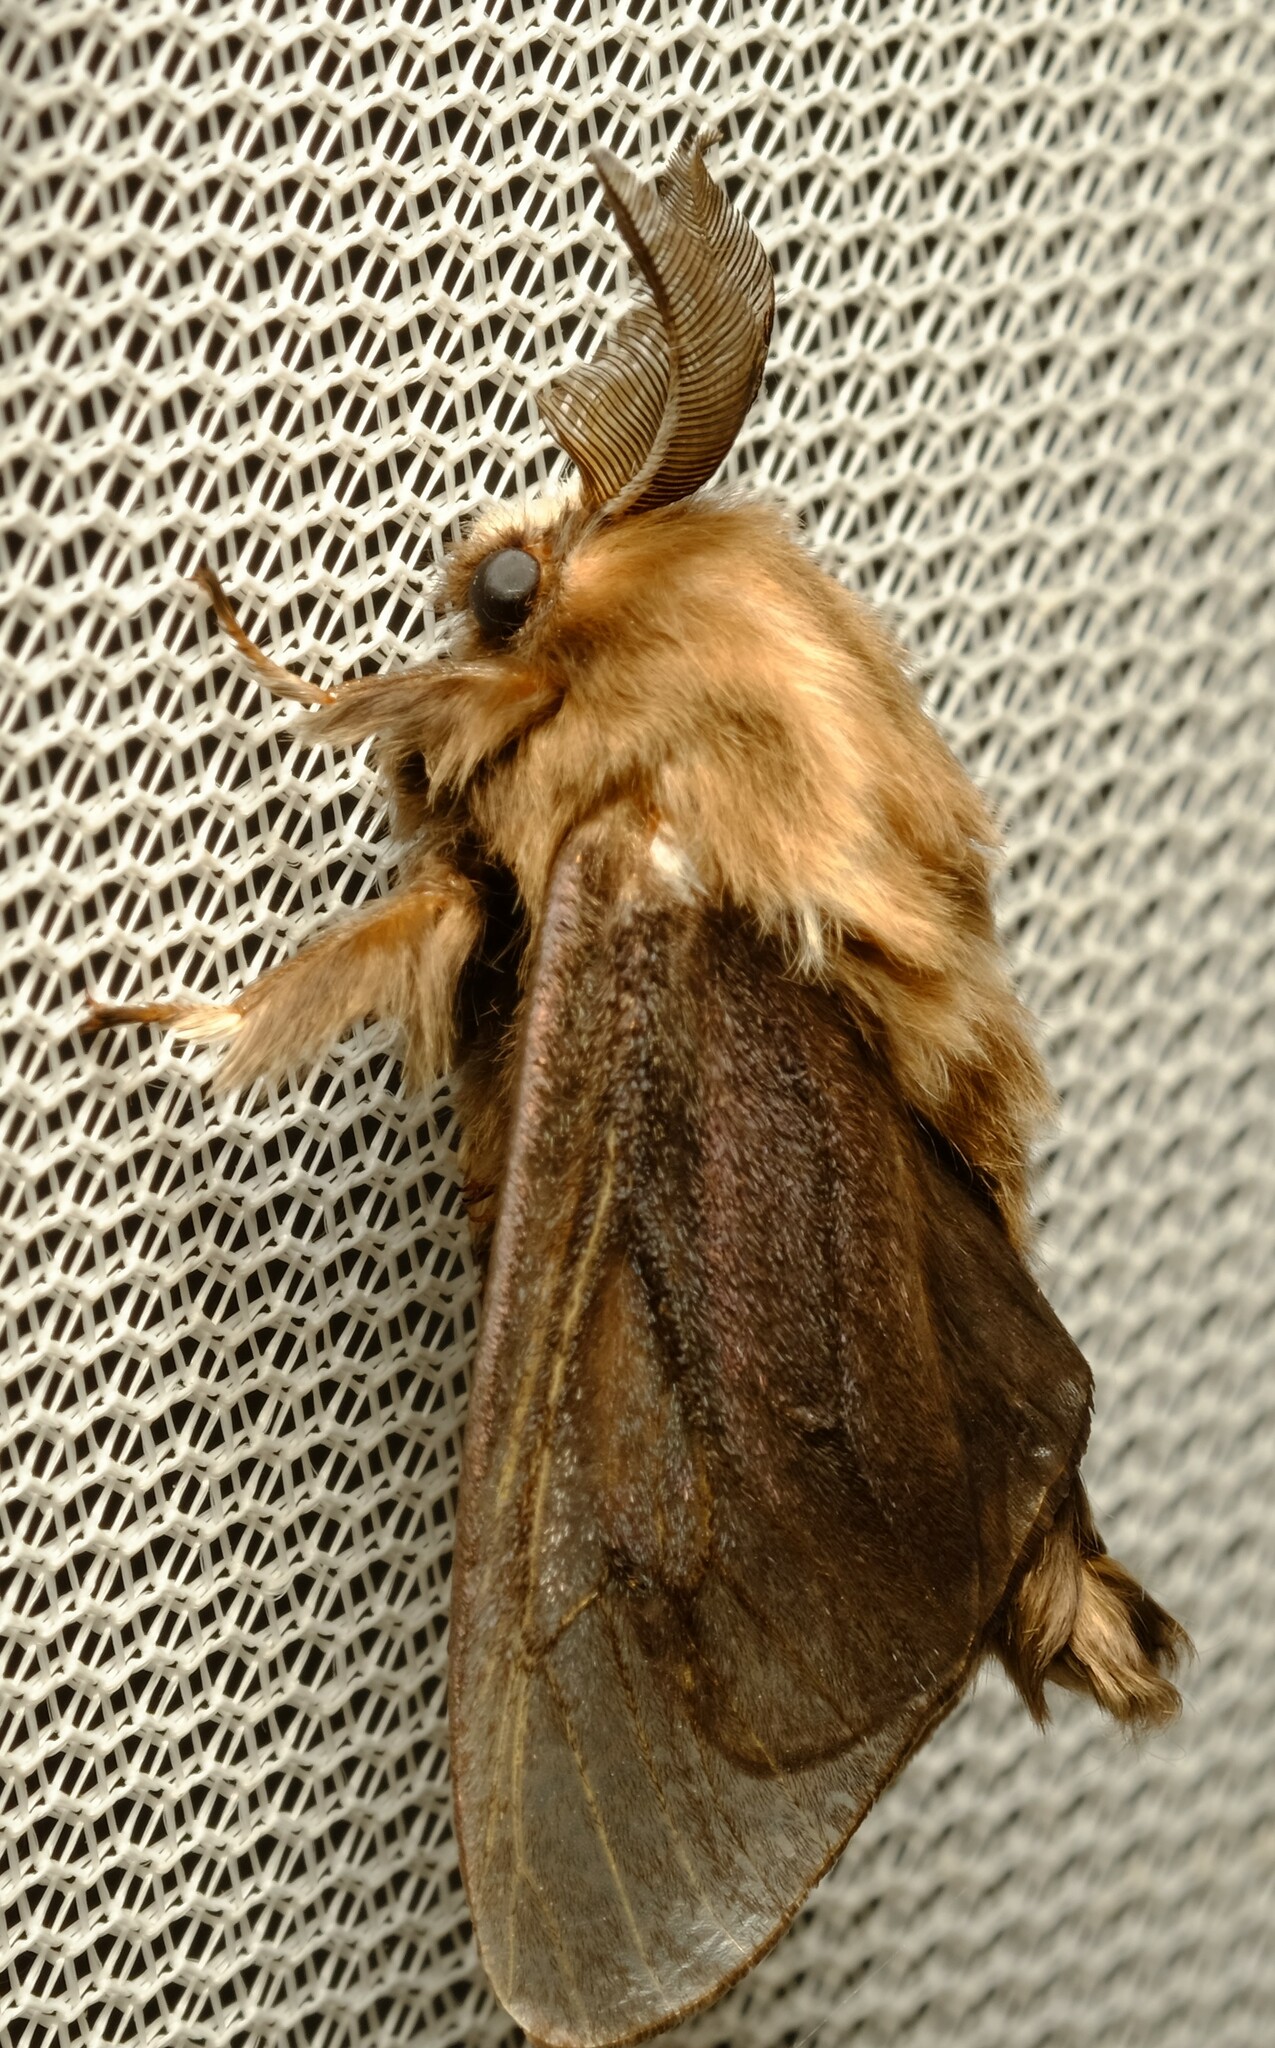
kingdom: Animalia
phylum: Arthropoda
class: Insecta
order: Lepidoptera
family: Psychidae
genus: Clania
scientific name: Clania ignobilis
